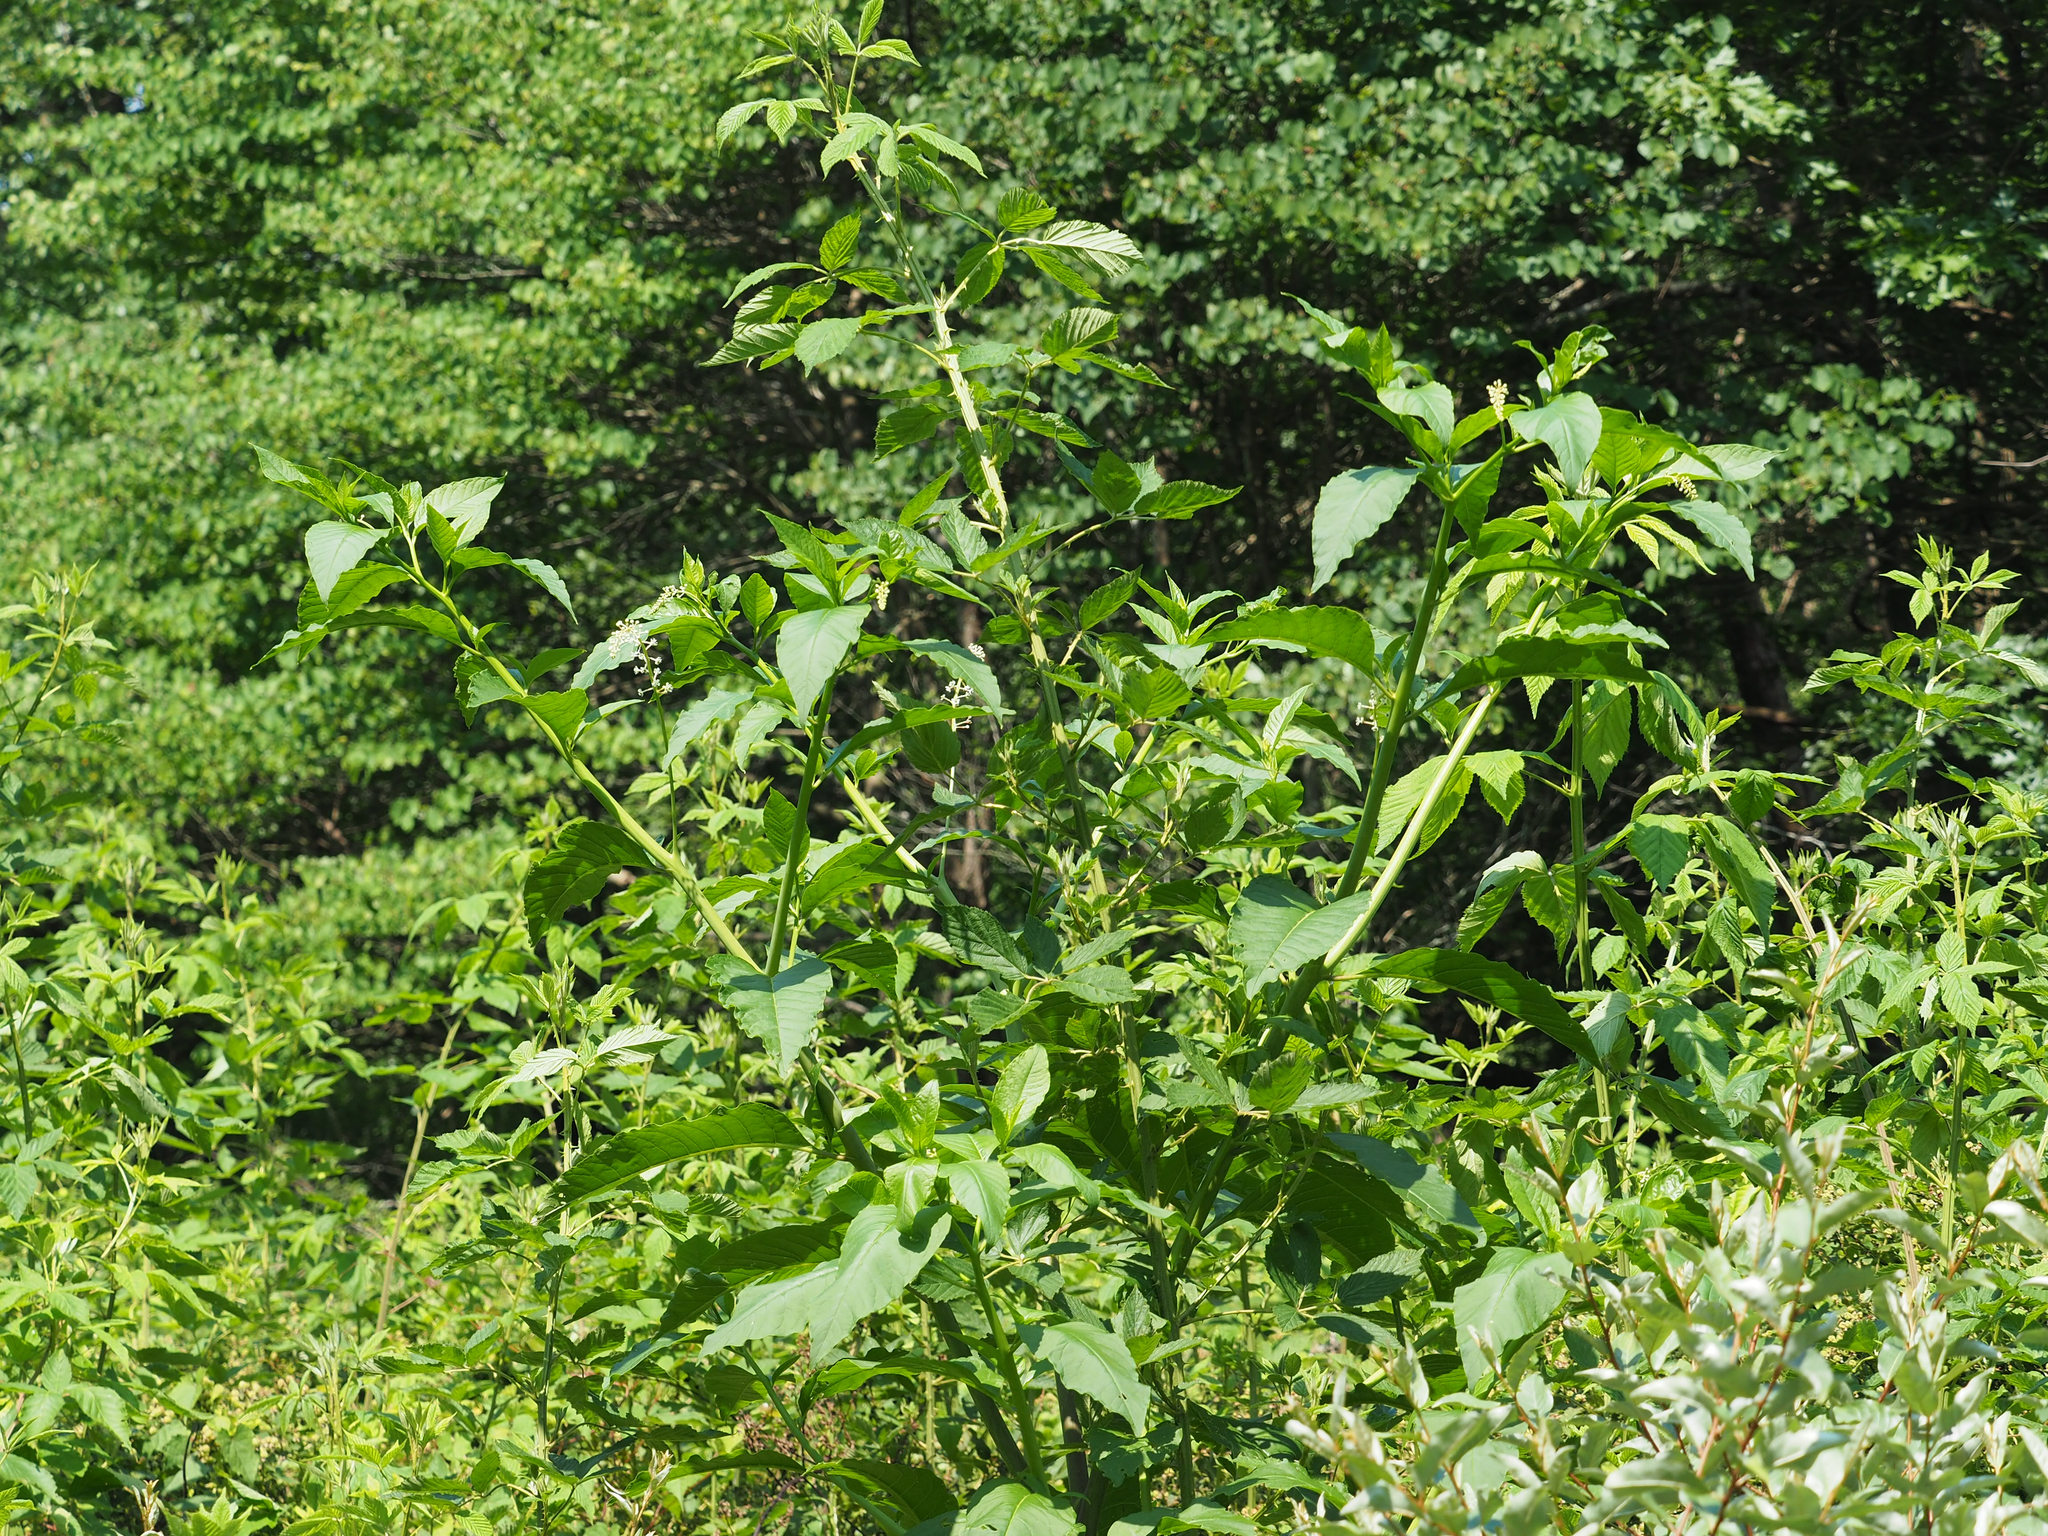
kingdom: Plantae
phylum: Tracheophyta
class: Magnoliopsida
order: Caryophyllales
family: Phytolaccaceae
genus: Phytolacca
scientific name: Phytolacca americana
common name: American pokeweed
